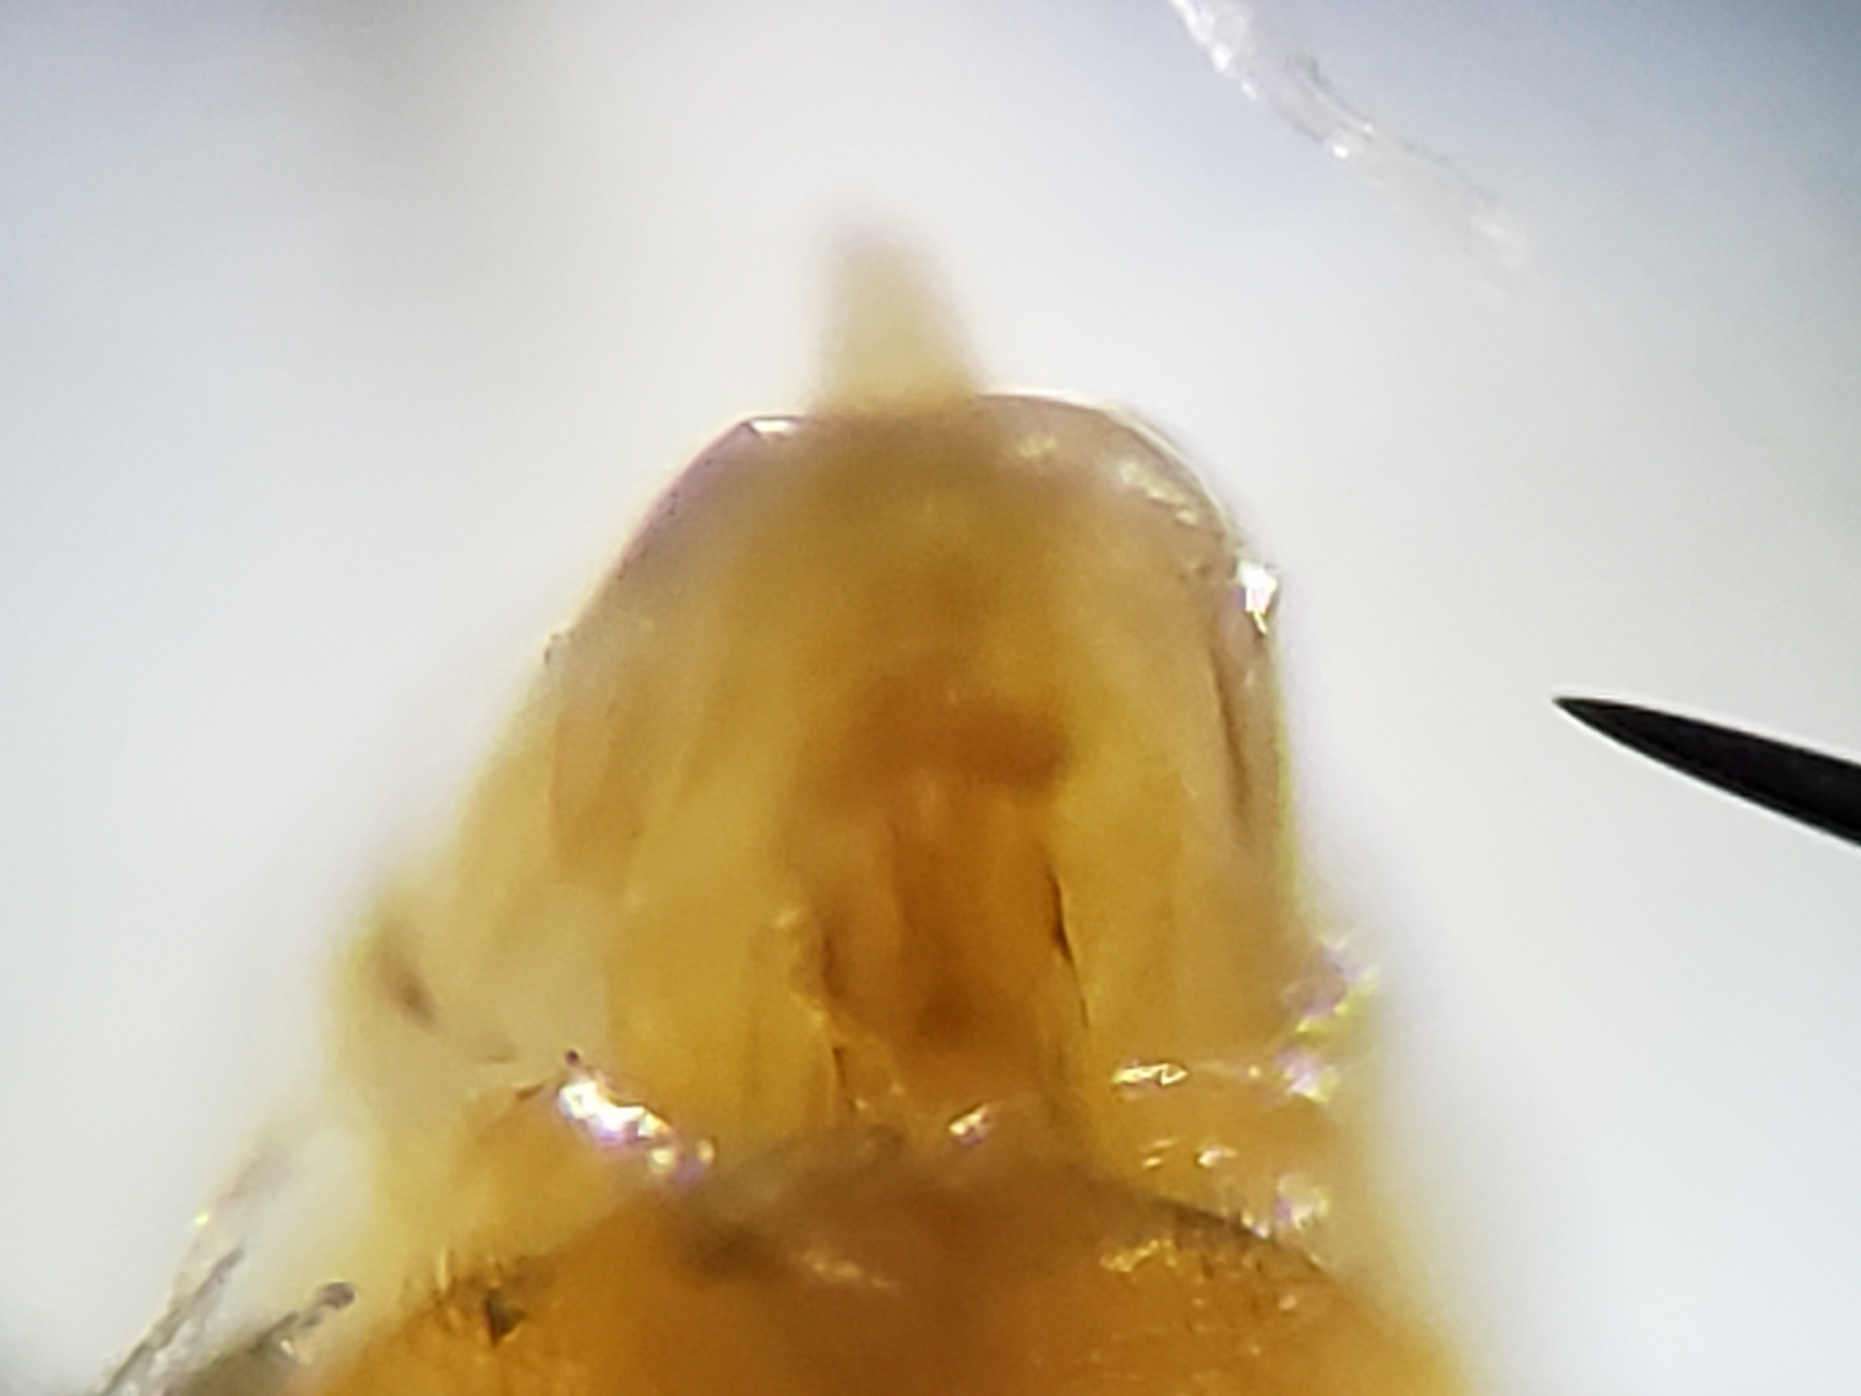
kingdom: Animalia
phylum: Arthropoda
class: Insecta
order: Coleoptera
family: Hydrophilidae
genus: Enochrus
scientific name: Enochrus ochraceus
